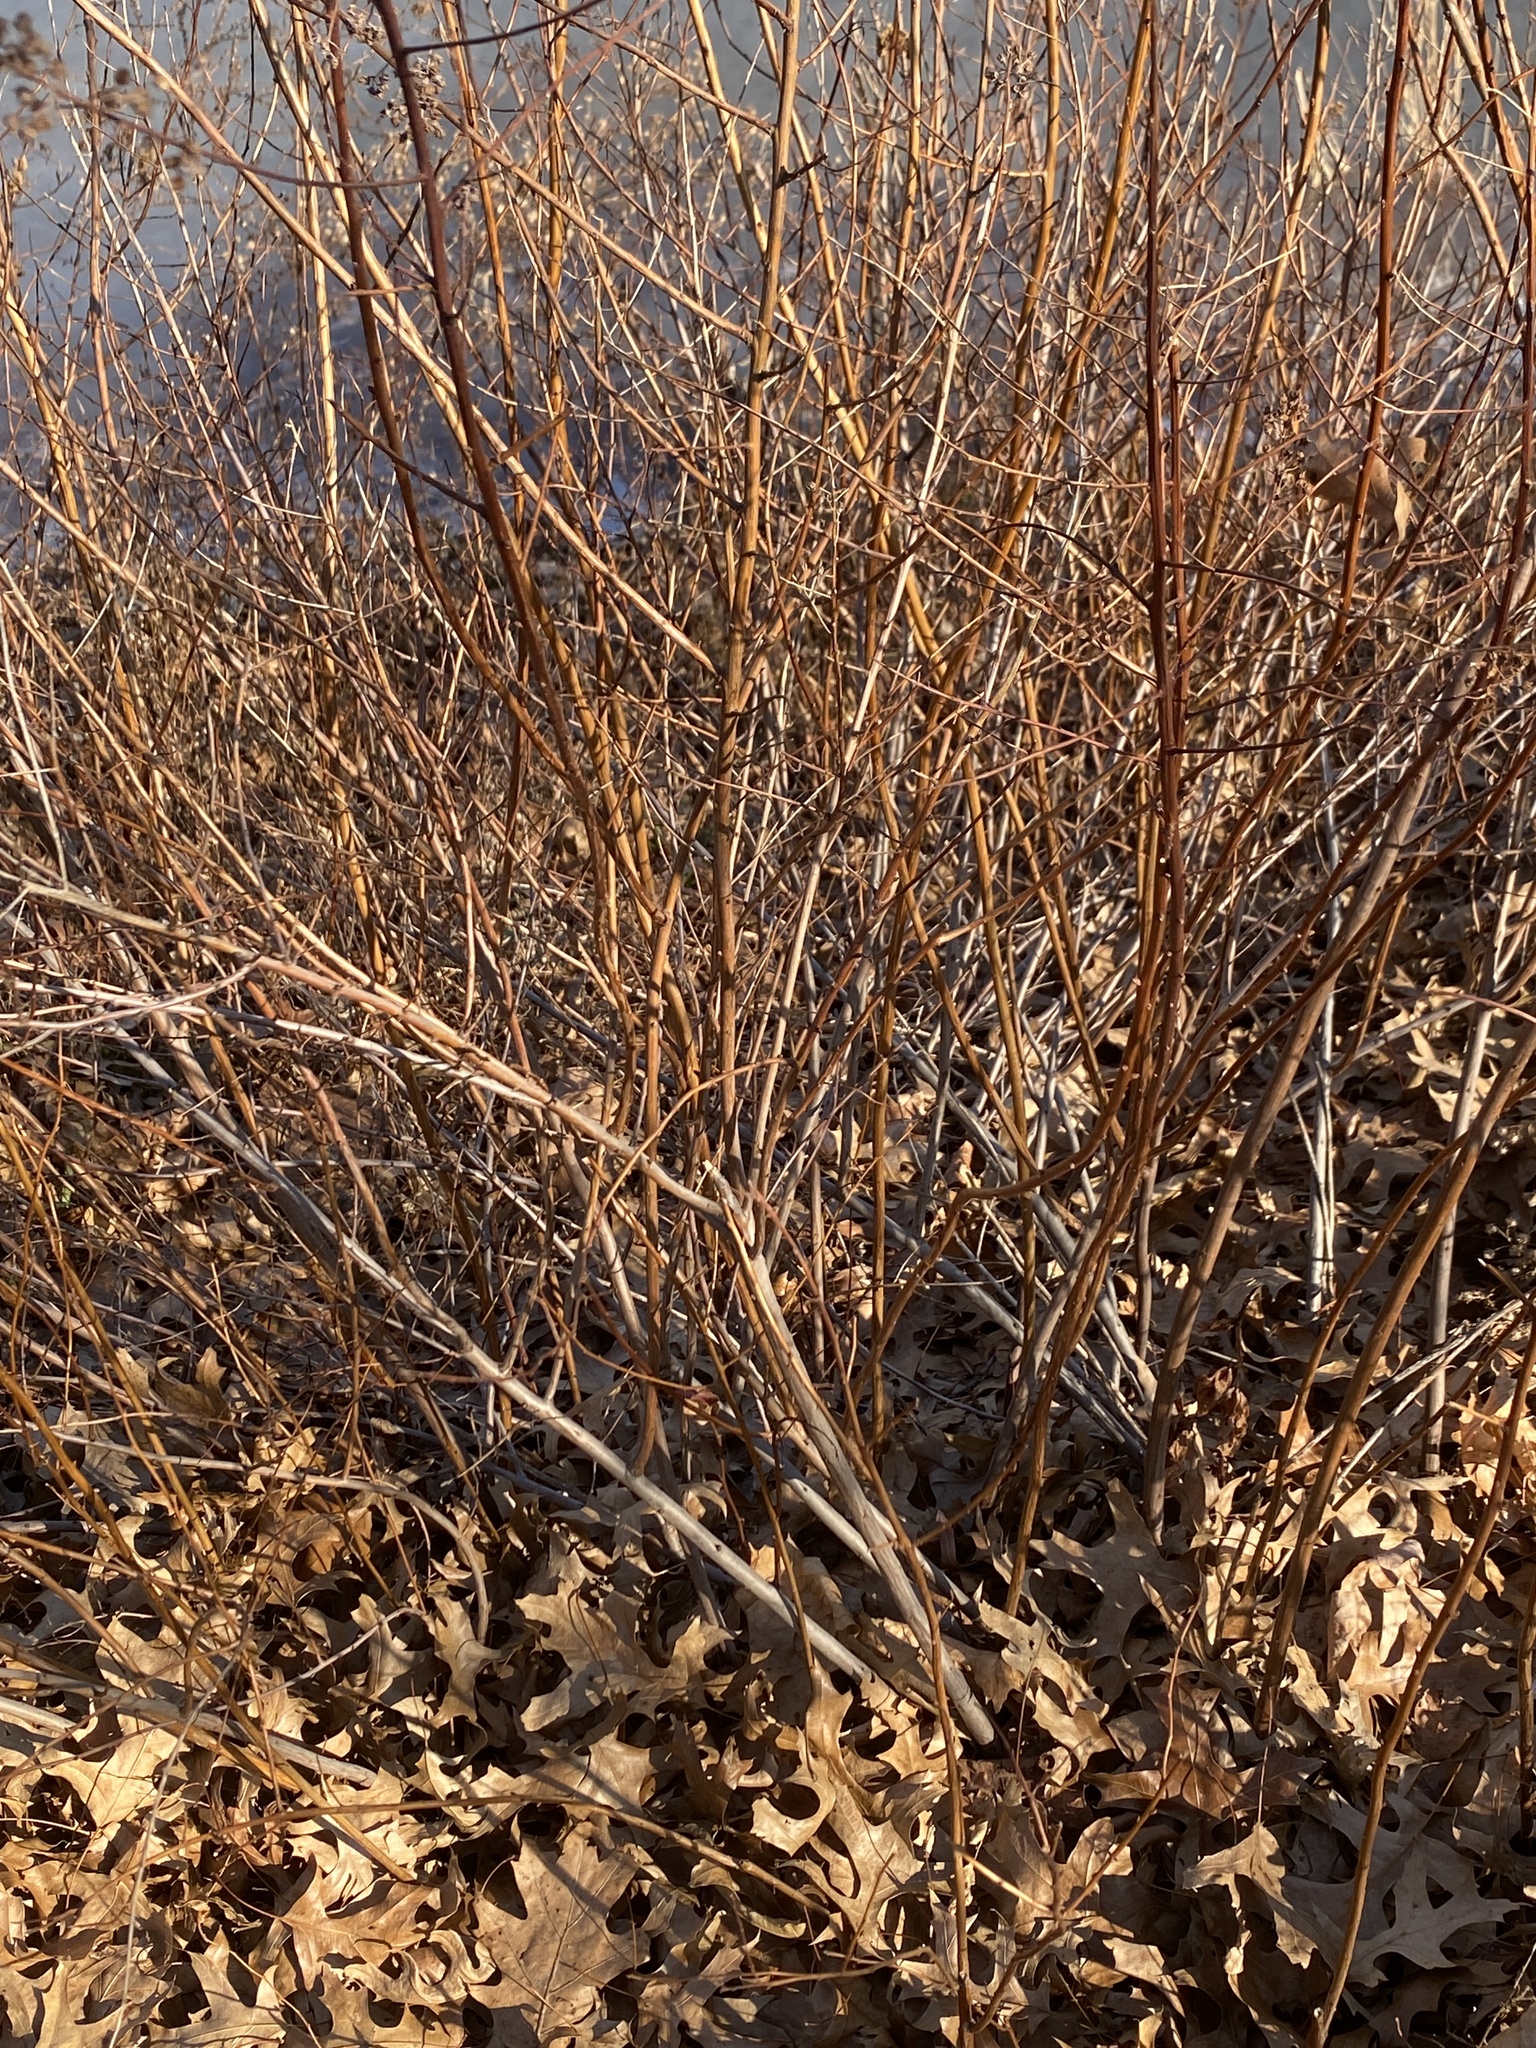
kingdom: Plantae
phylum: Tracheophyta
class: Magnoliopsida
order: Rosales
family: Rosaceae
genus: Spiraea
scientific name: Spiraea alba
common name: Pale bridewort
